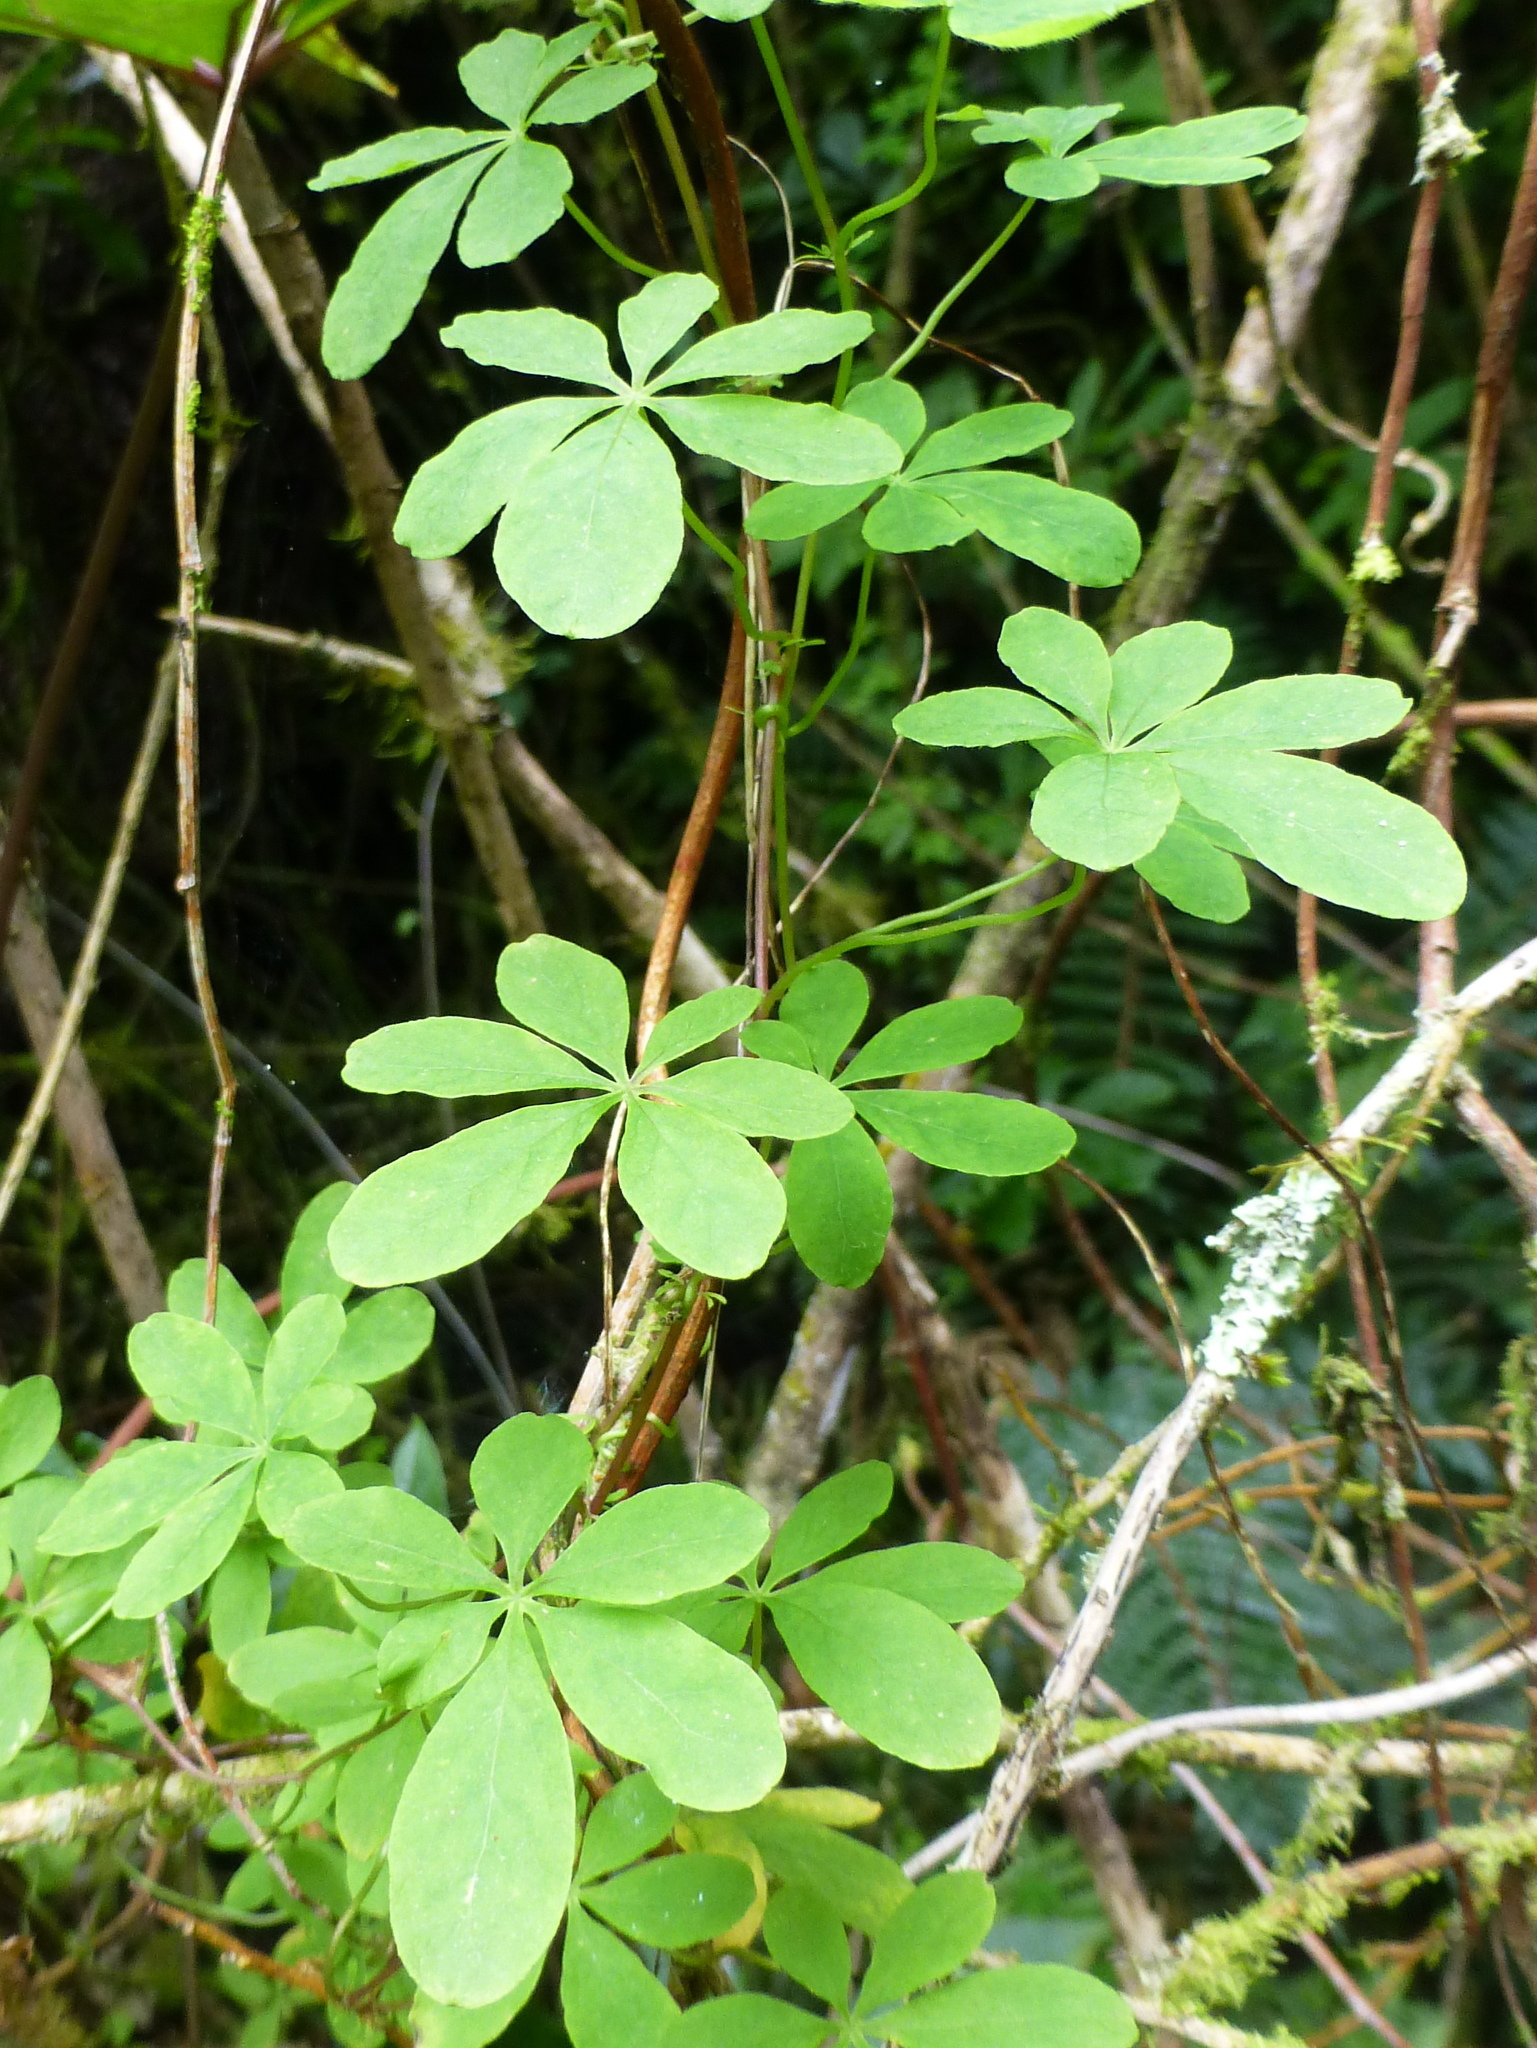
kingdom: Plantae
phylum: Tracheophyta
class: Magnoliopsida
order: Brassicales
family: Tropaeolaceae
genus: Tropaeolum
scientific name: Tropaeolum speciosum
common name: Flame nasturtium
